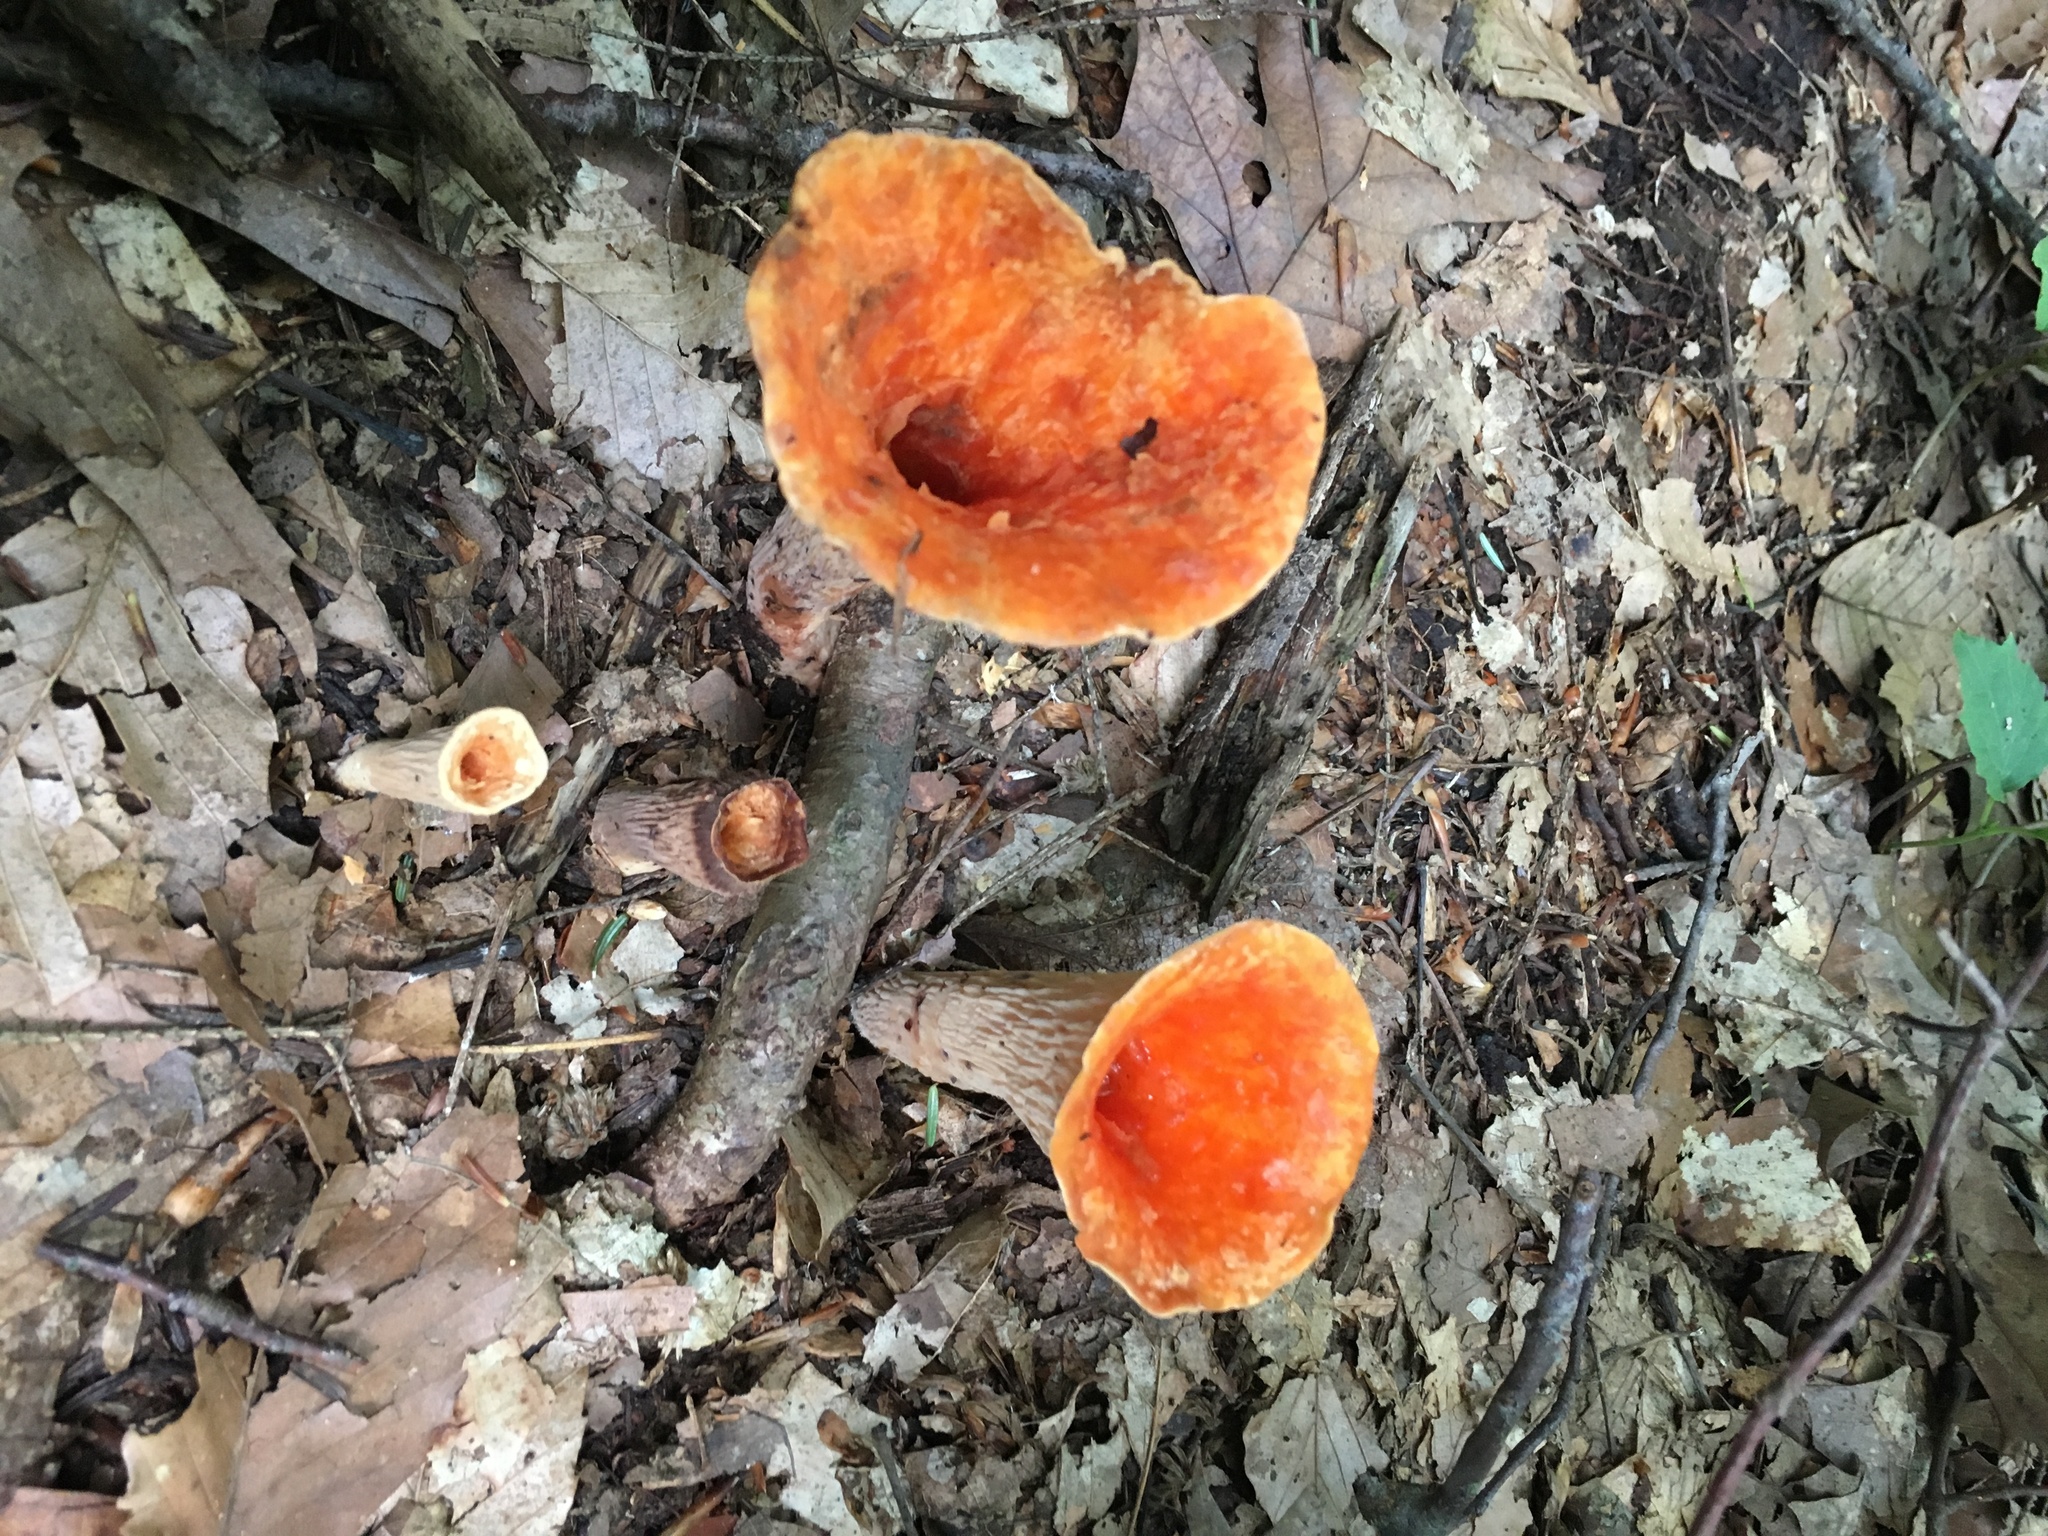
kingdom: Fungi
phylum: Basidiomycota
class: Agaricomycetes
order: Gomphales
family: Gomphaceae
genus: Turbinellus
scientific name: Turbinellus floccosus
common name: Scaly chanterelle
